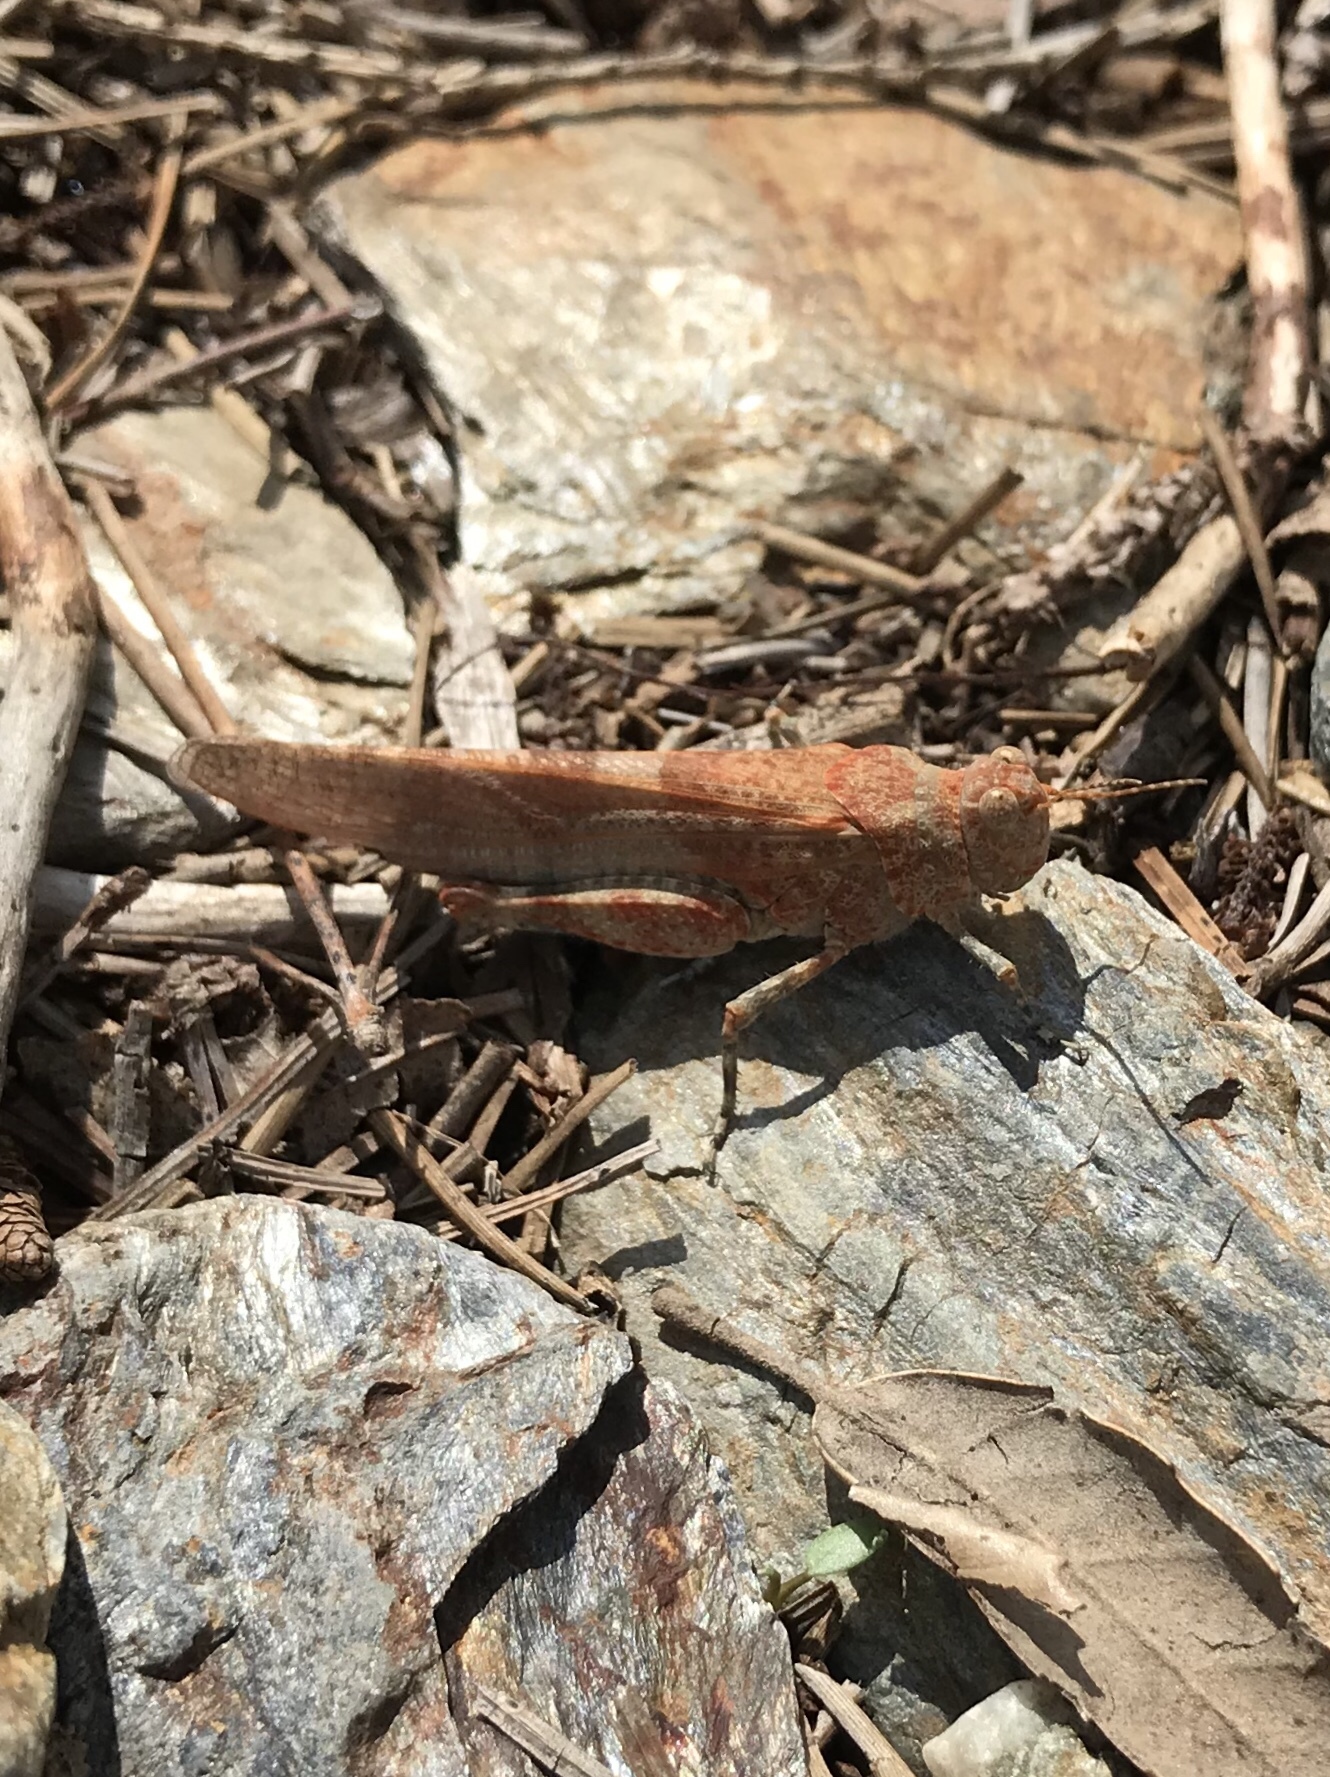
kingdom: Animalia
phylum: Arthropoda
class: Insecta
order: Orthoptera
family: Acrididae
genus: Sphingonotus
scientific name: Sphingonotus corsicus
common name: Corsican sand grasshopper
